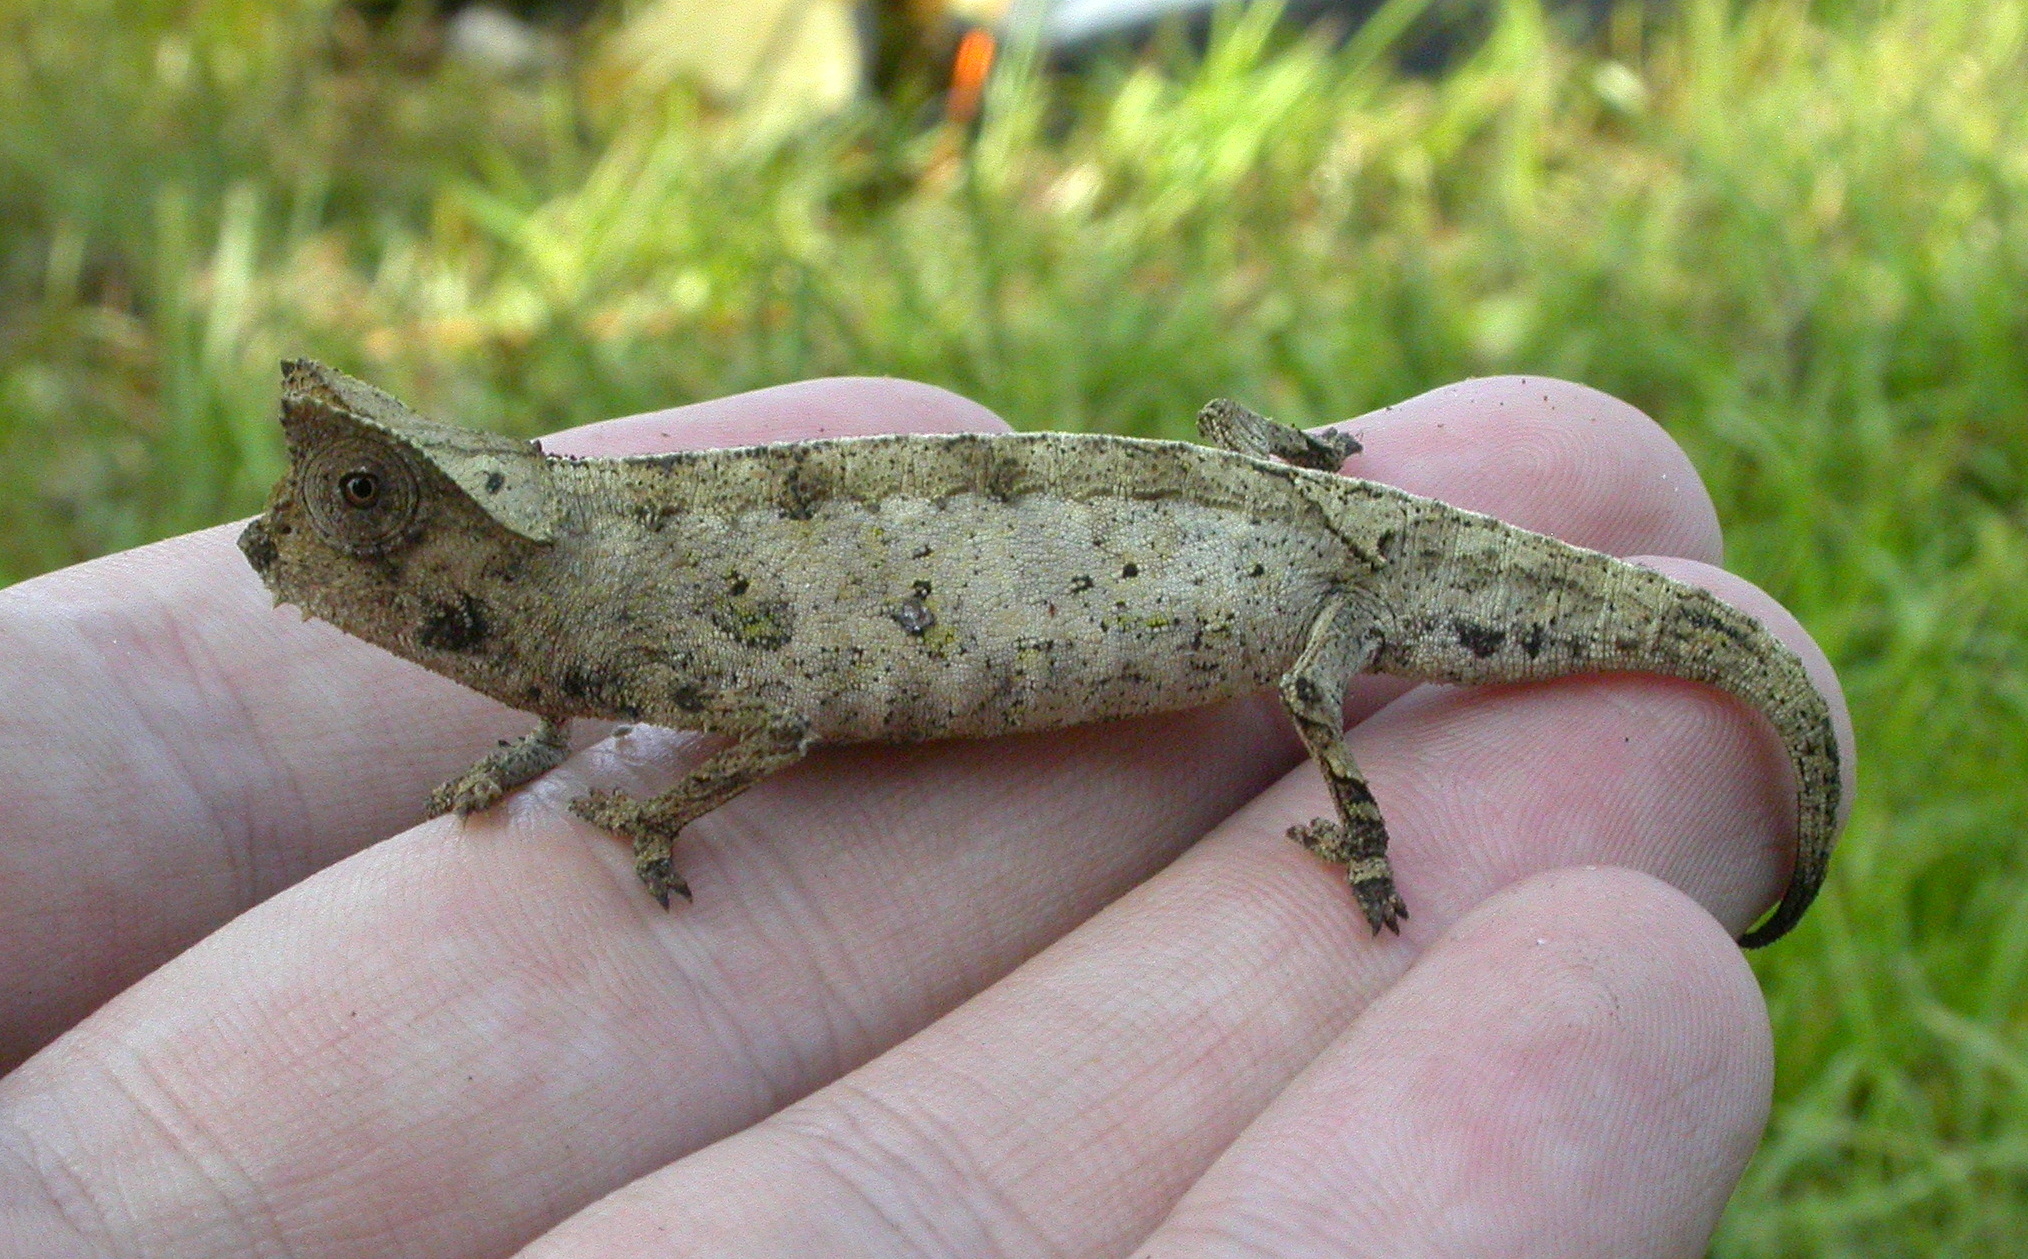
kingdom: Animalia
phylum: Chordata
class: Squamata
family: Chamaeleonidae
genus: Brookesia
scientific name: Brookesia superciliaris
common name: Brown leaf chameleon
